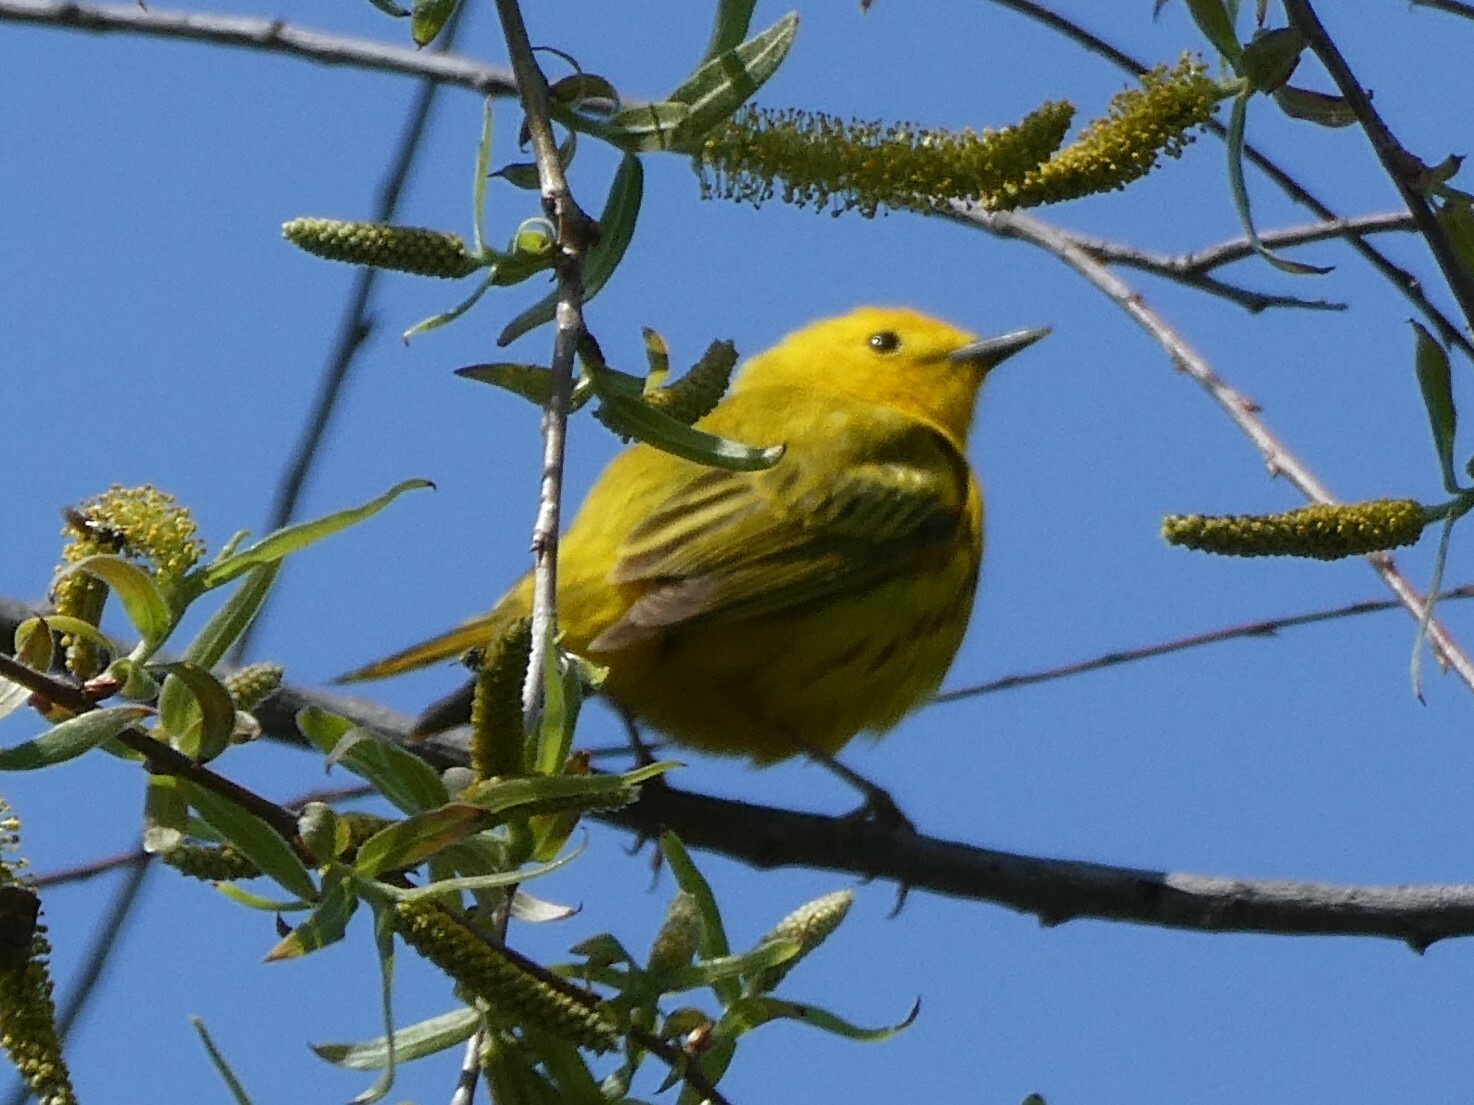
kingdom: Animalia
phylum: Chordata
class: Aves
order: Passeriformes
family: Parulidae
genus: Setophaga
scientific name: Setophaga petechia
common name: Yellow warbler
